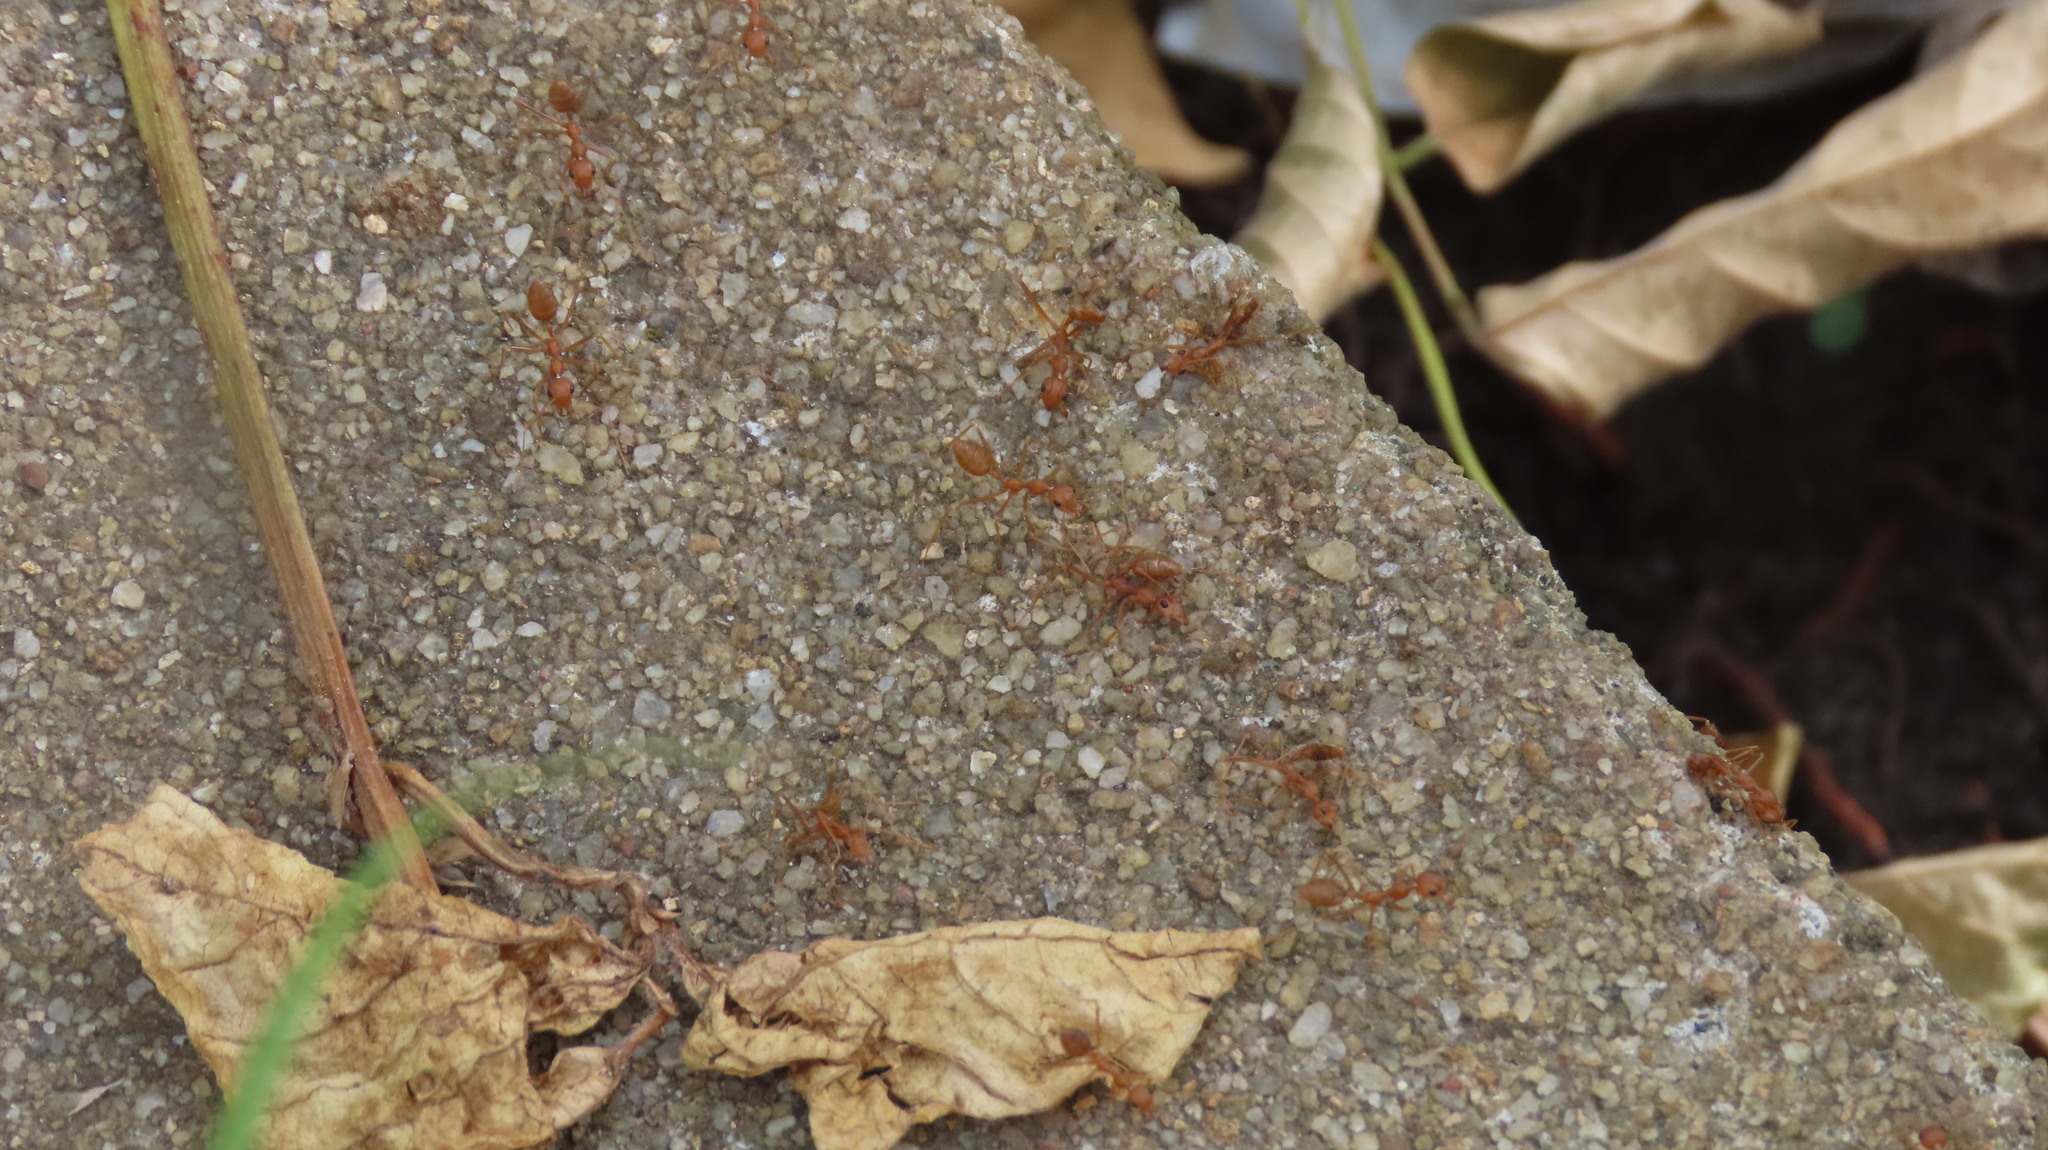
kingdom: Animalia
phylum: Arthropoda
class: Insecta
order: Hymenoptera
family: Formicidae
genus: Oecophylla
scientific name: Oecophylla smaragdina
